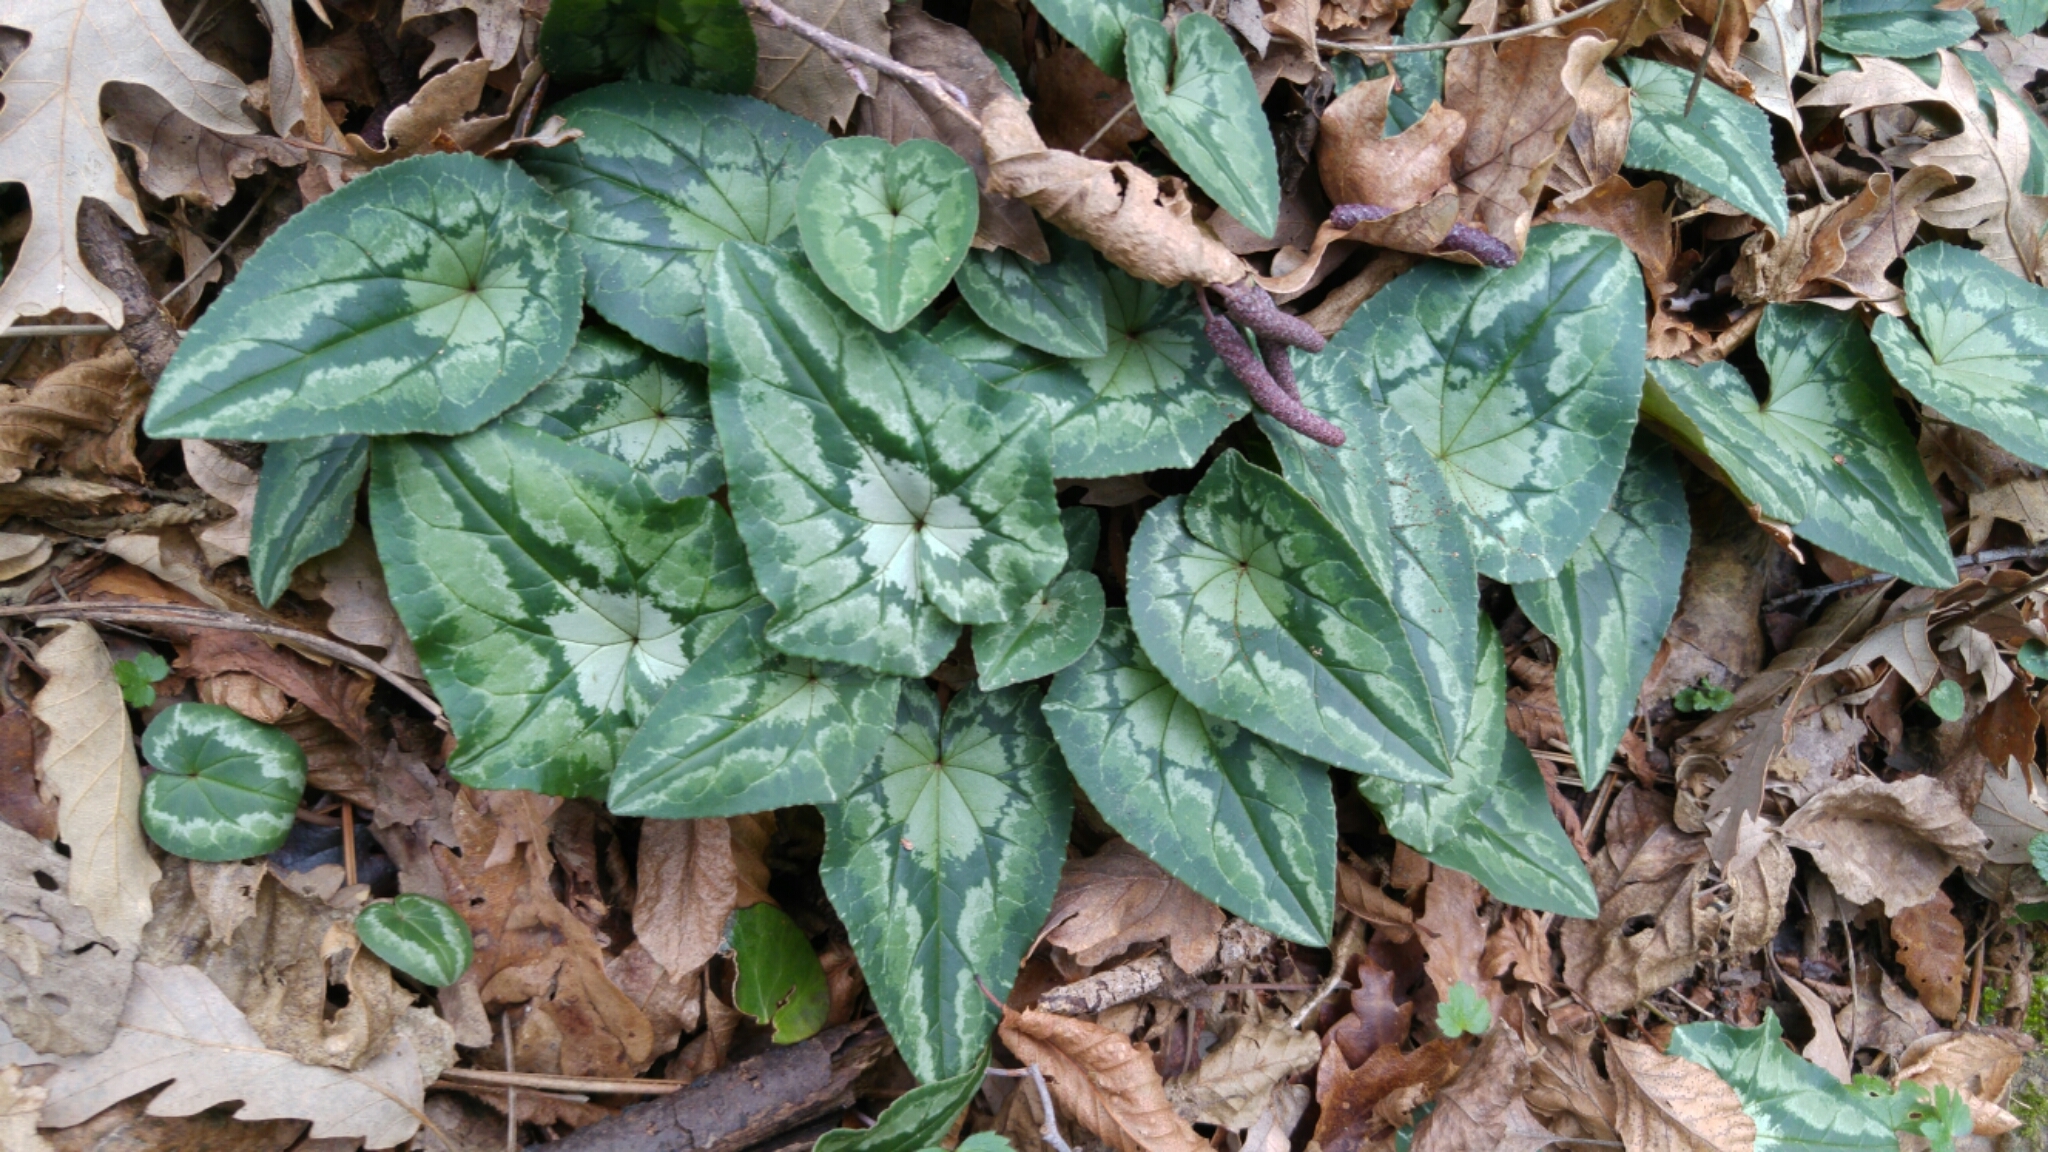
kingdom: Plantae
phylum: Tracheophyta
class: Magnoliopsida
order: Ericales
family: Primulaceae
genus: Cyclamen
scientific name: Cyclamen hederifolium
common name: Sowbread
